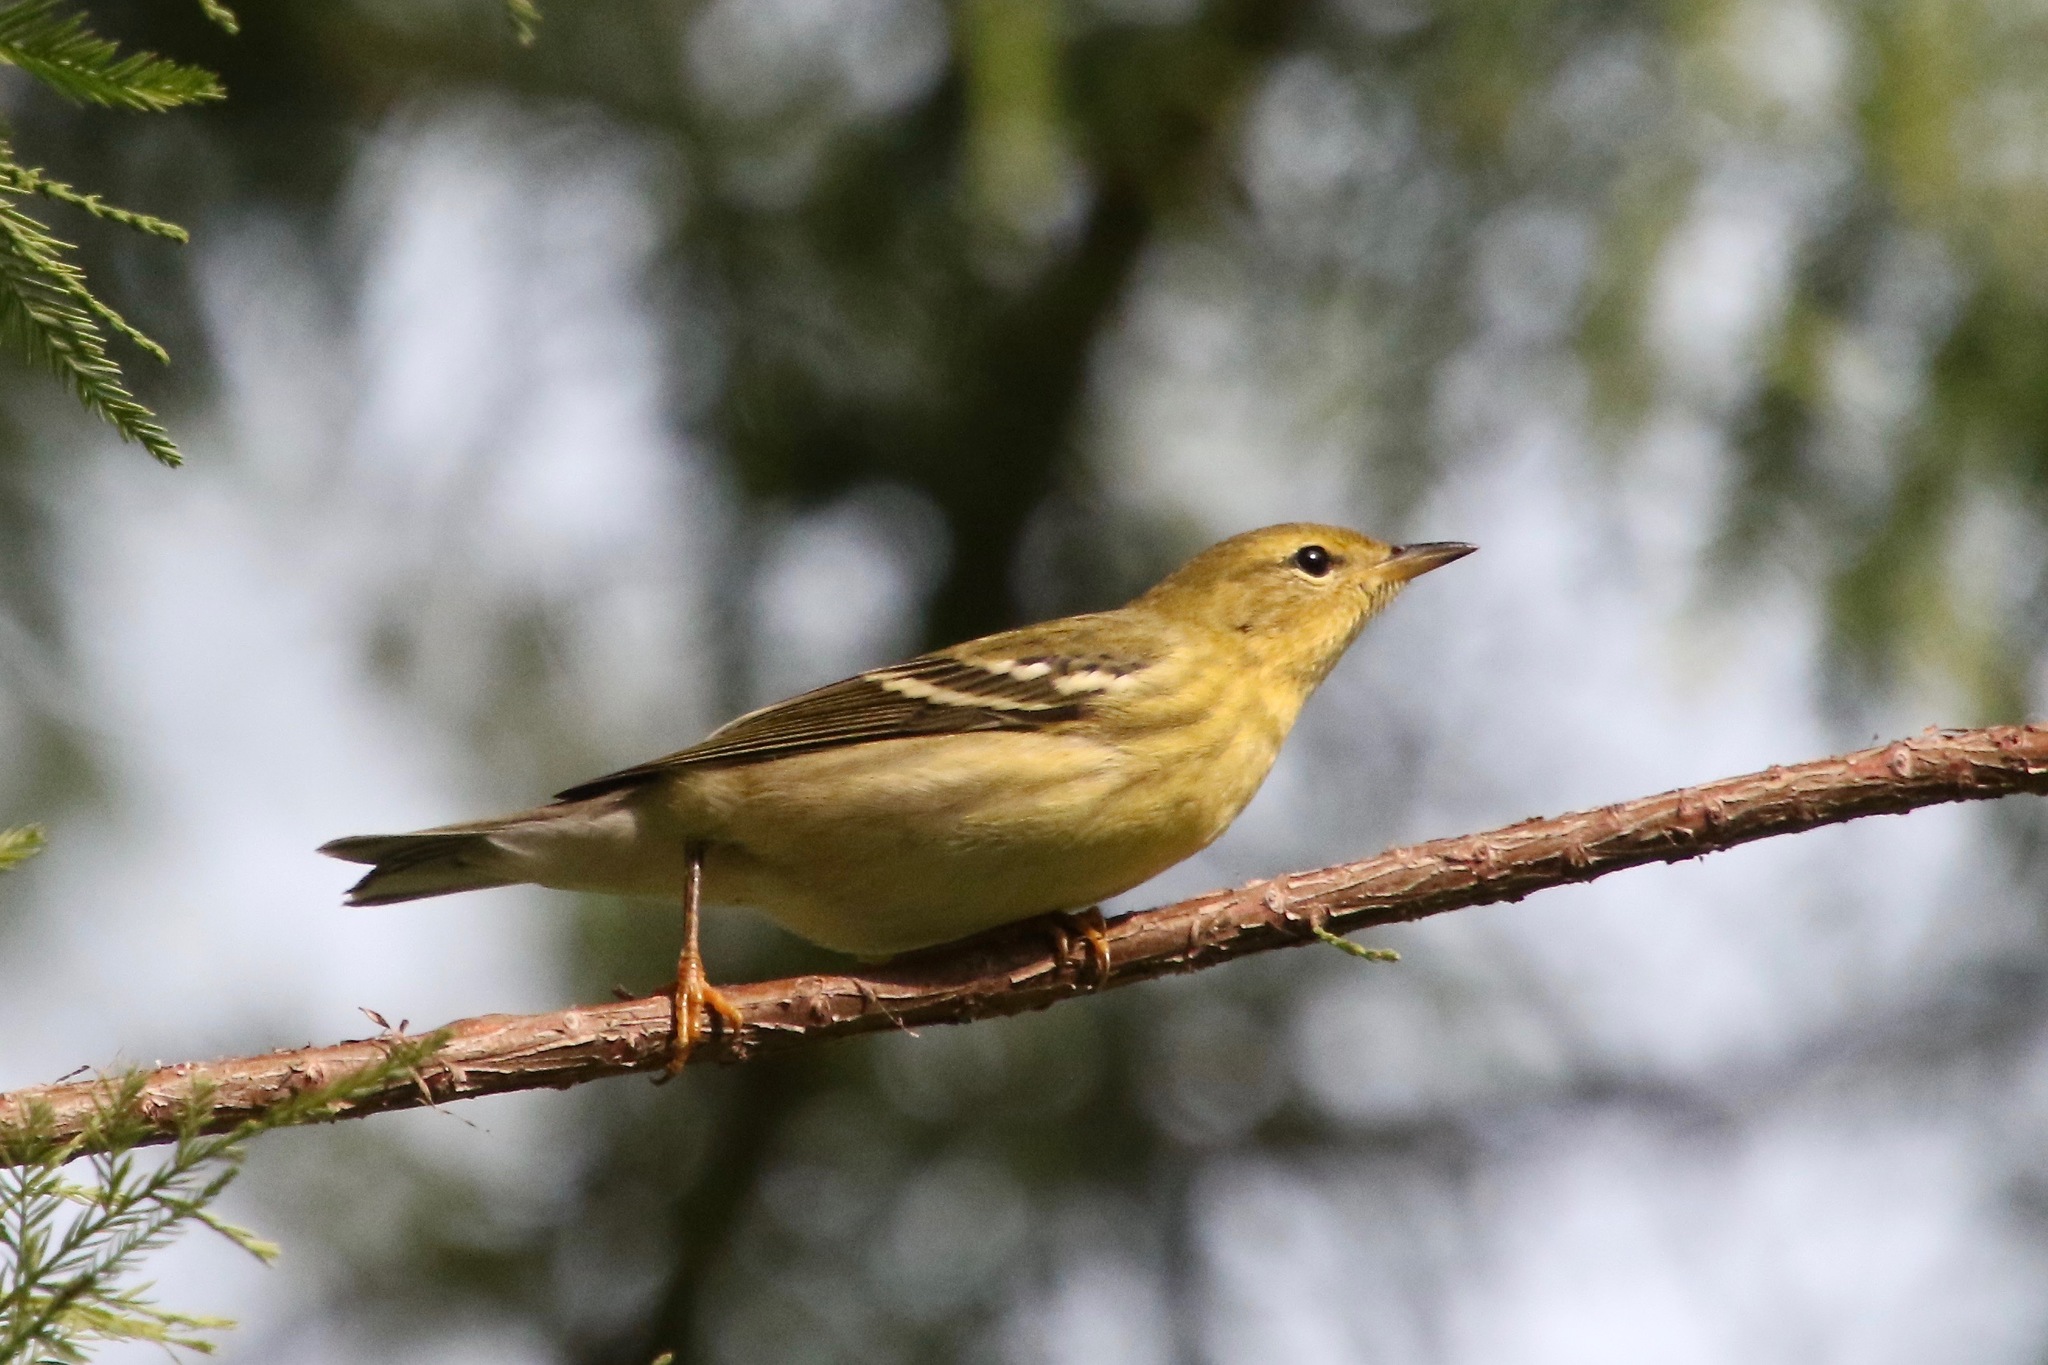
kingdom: Animalia
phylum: Chordata
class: Aves
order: Passeriformes
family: Parulidae
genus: Setophaga
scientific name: Setophaga striata
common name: Blackpoll warbler
